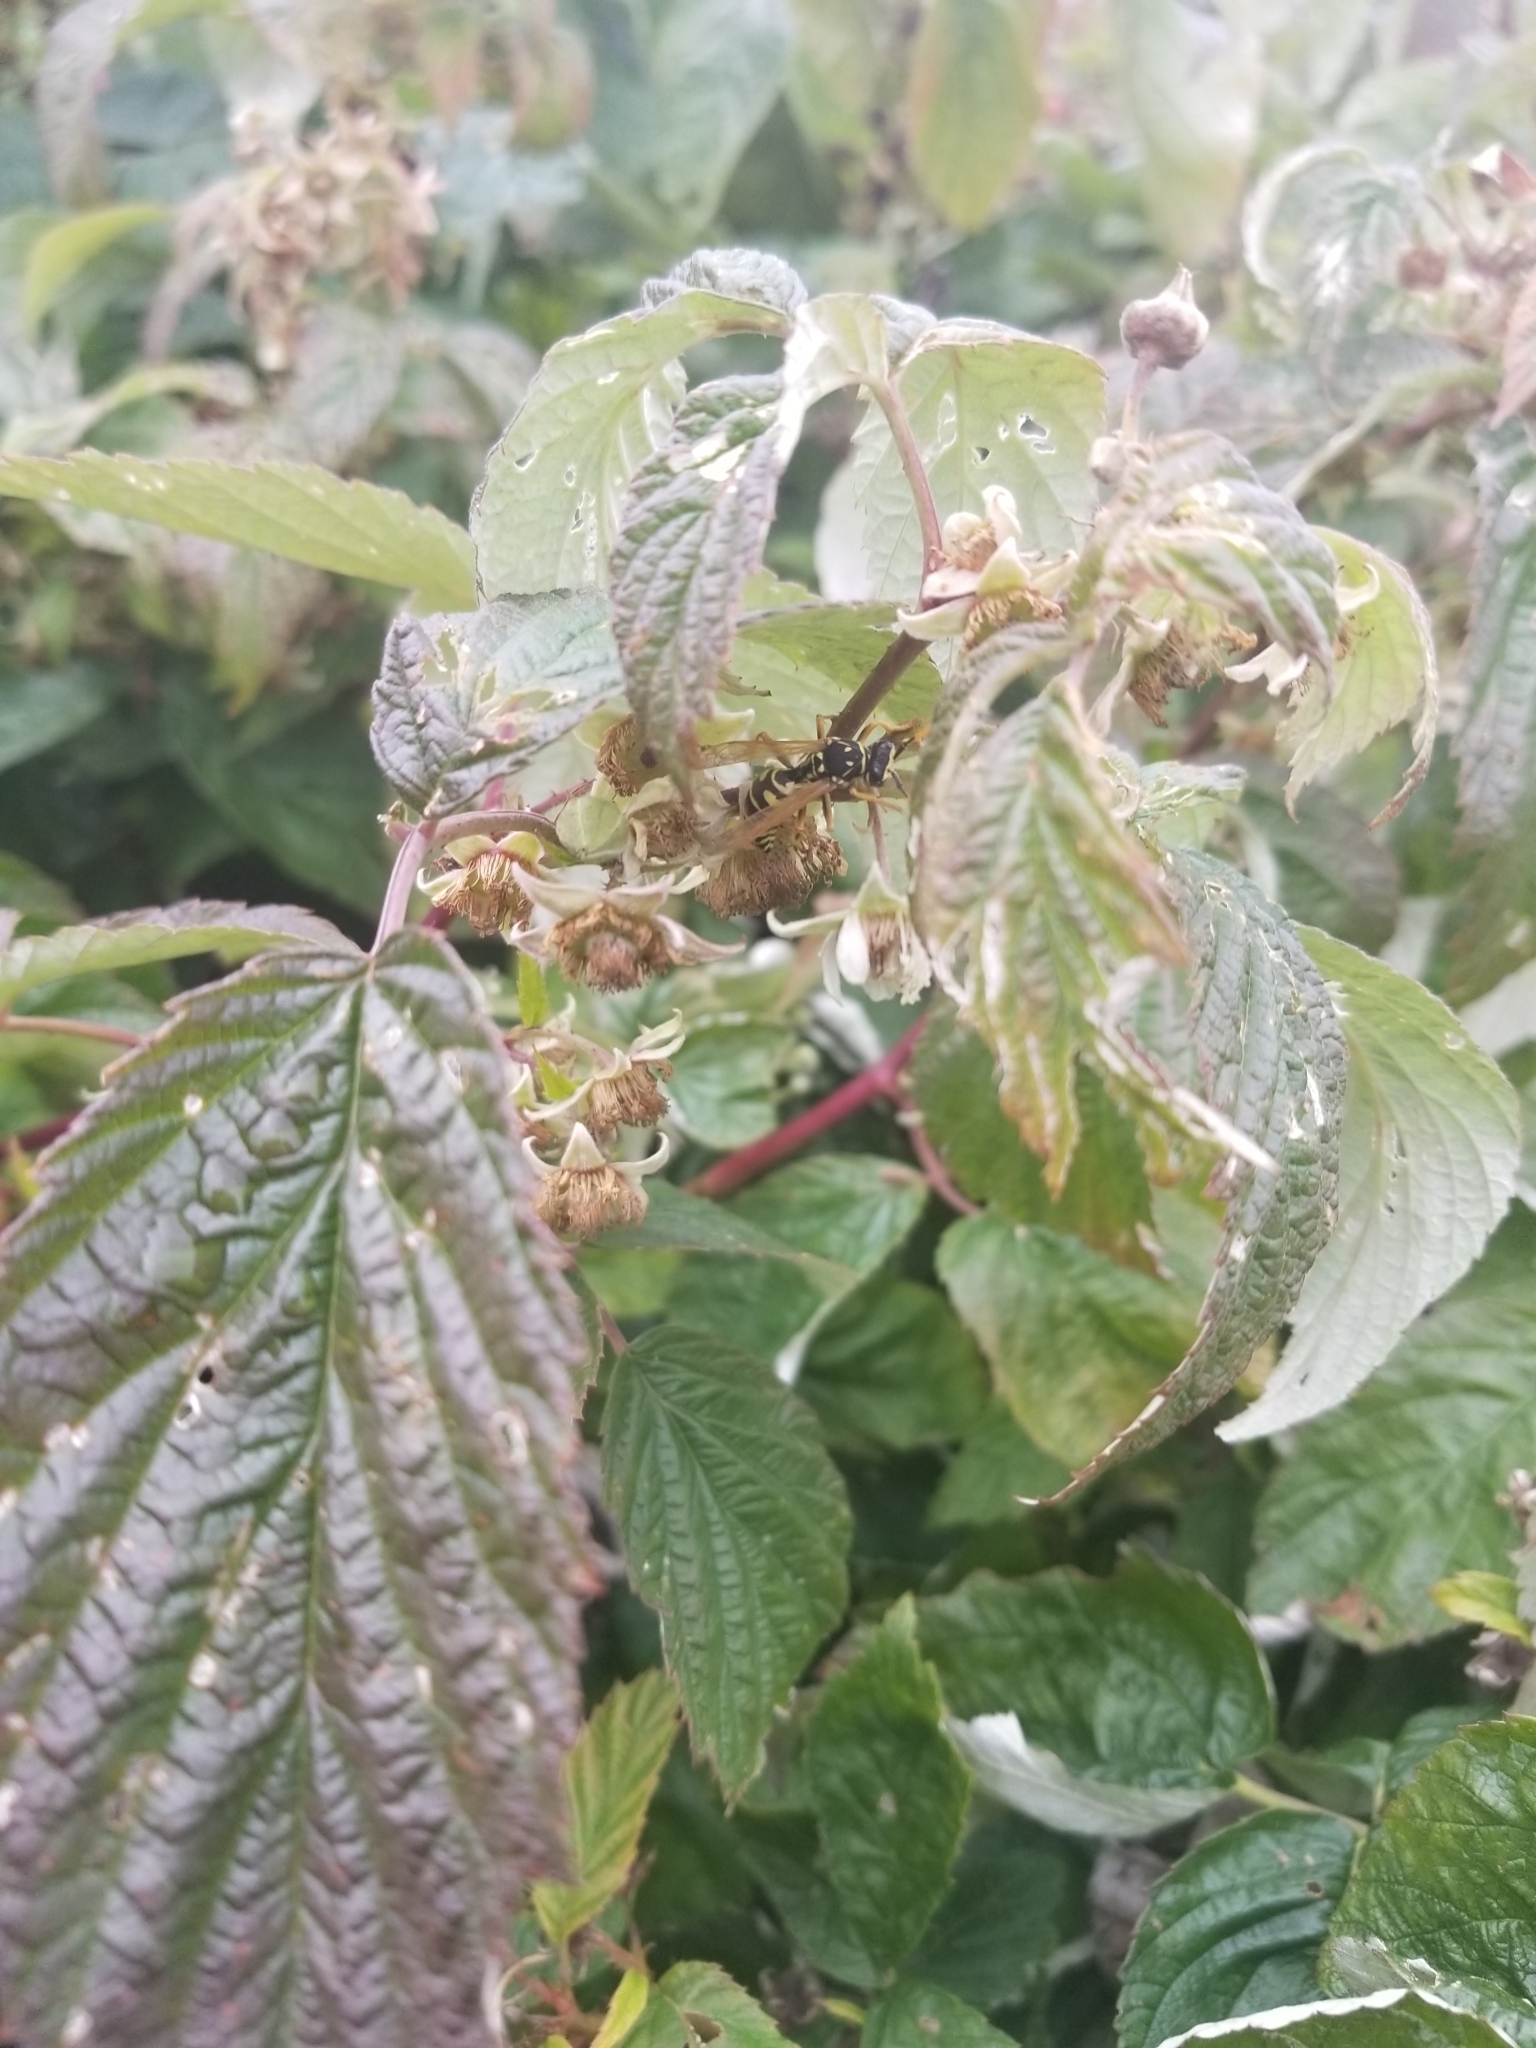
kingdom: Animalia
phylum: Arthropoda
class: Insecta
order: Hymenoptera
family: Eumenidae
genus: Polistes
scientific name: Polistes dominula
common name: Paper wasp
